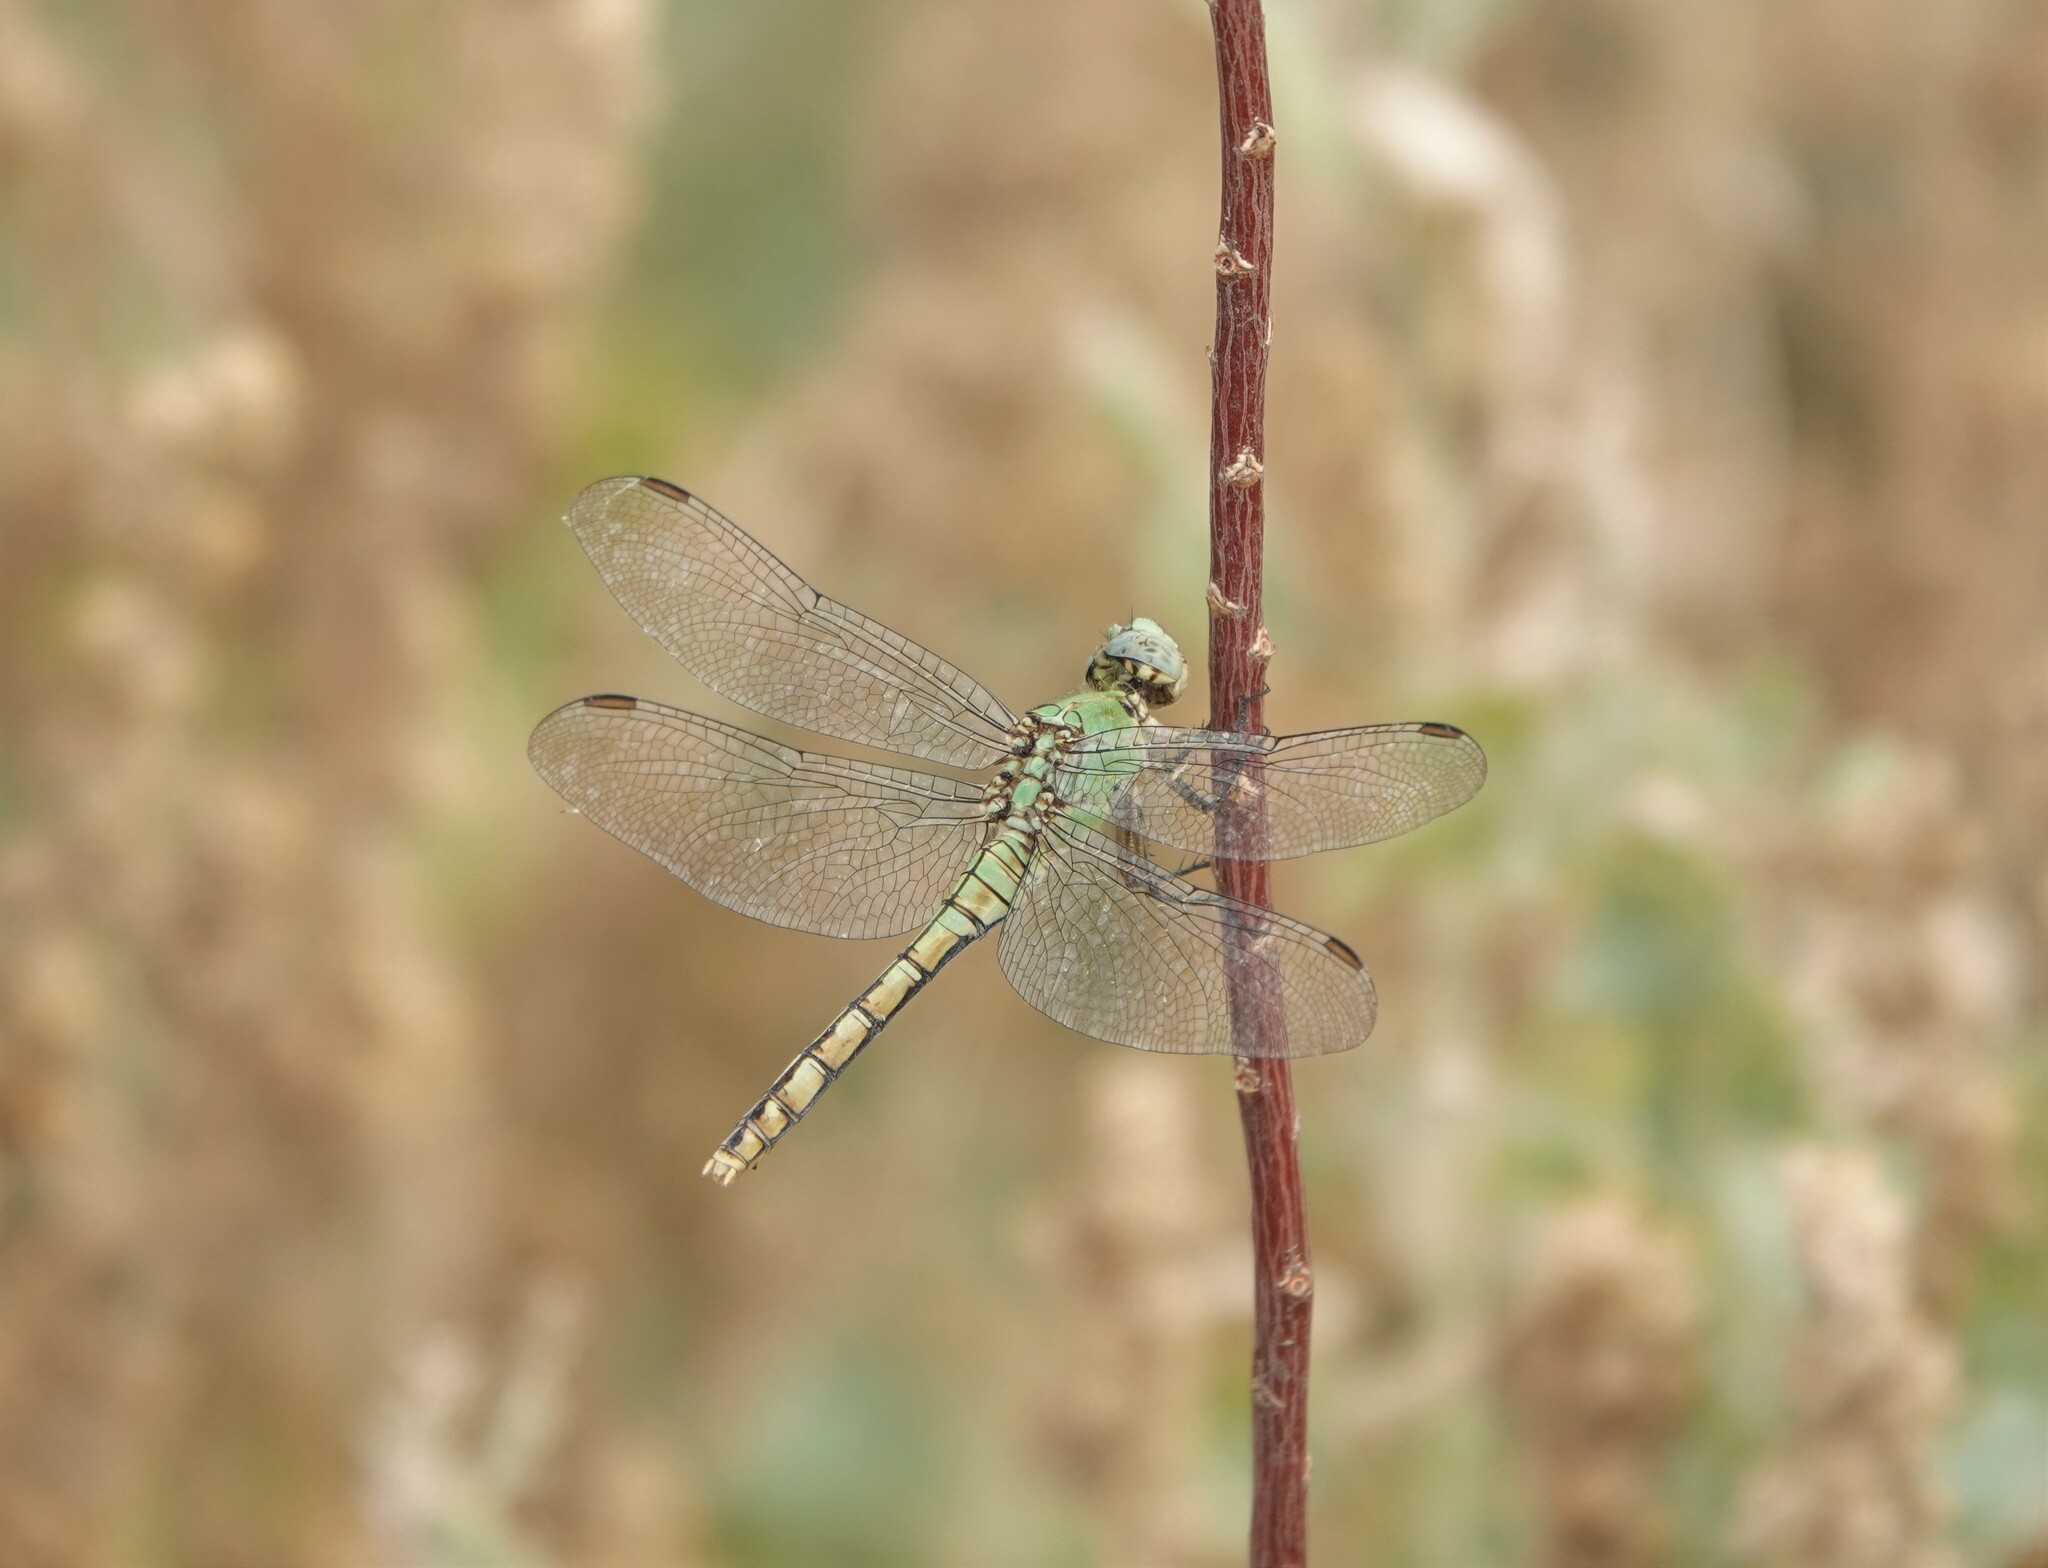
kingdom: Animalia
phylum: Arthropoda
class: Insecta
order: Odonata
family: Libellulidae
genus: Erythemis
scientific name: Erythemis collocata
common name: Western pondhawk
